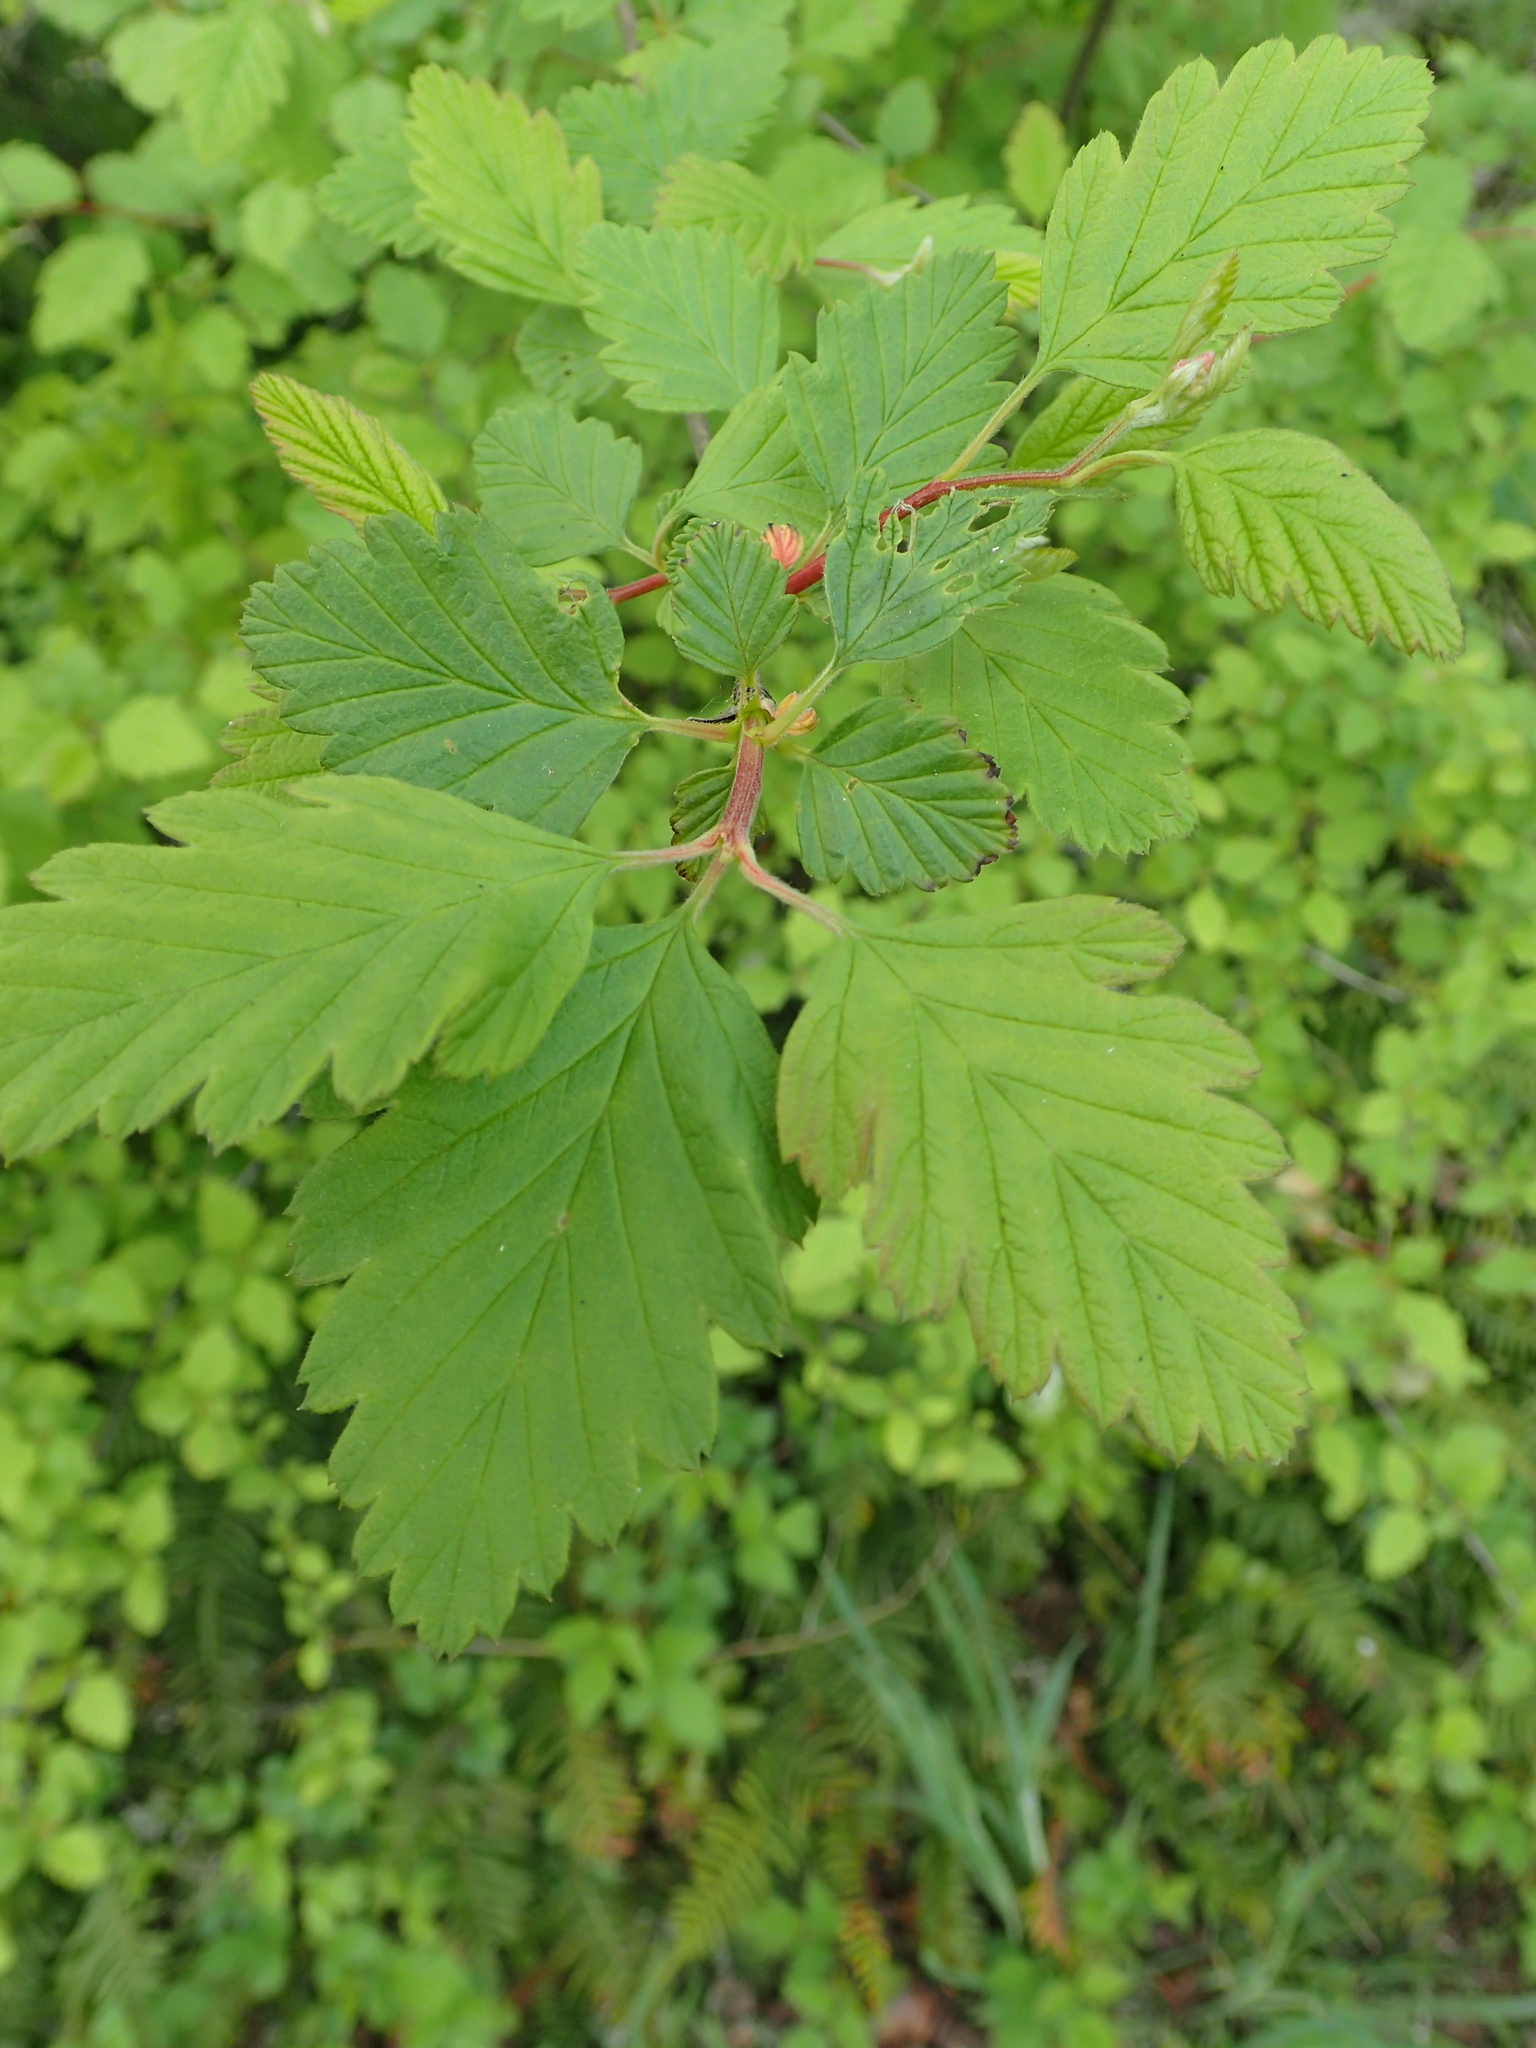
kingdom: Plantae
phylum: Tracheophyta
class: Magnoliopsida
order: Rosales
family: Rosaceae
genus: Holodiscus
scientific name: Holodiscus discolor
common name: Oceanspray
